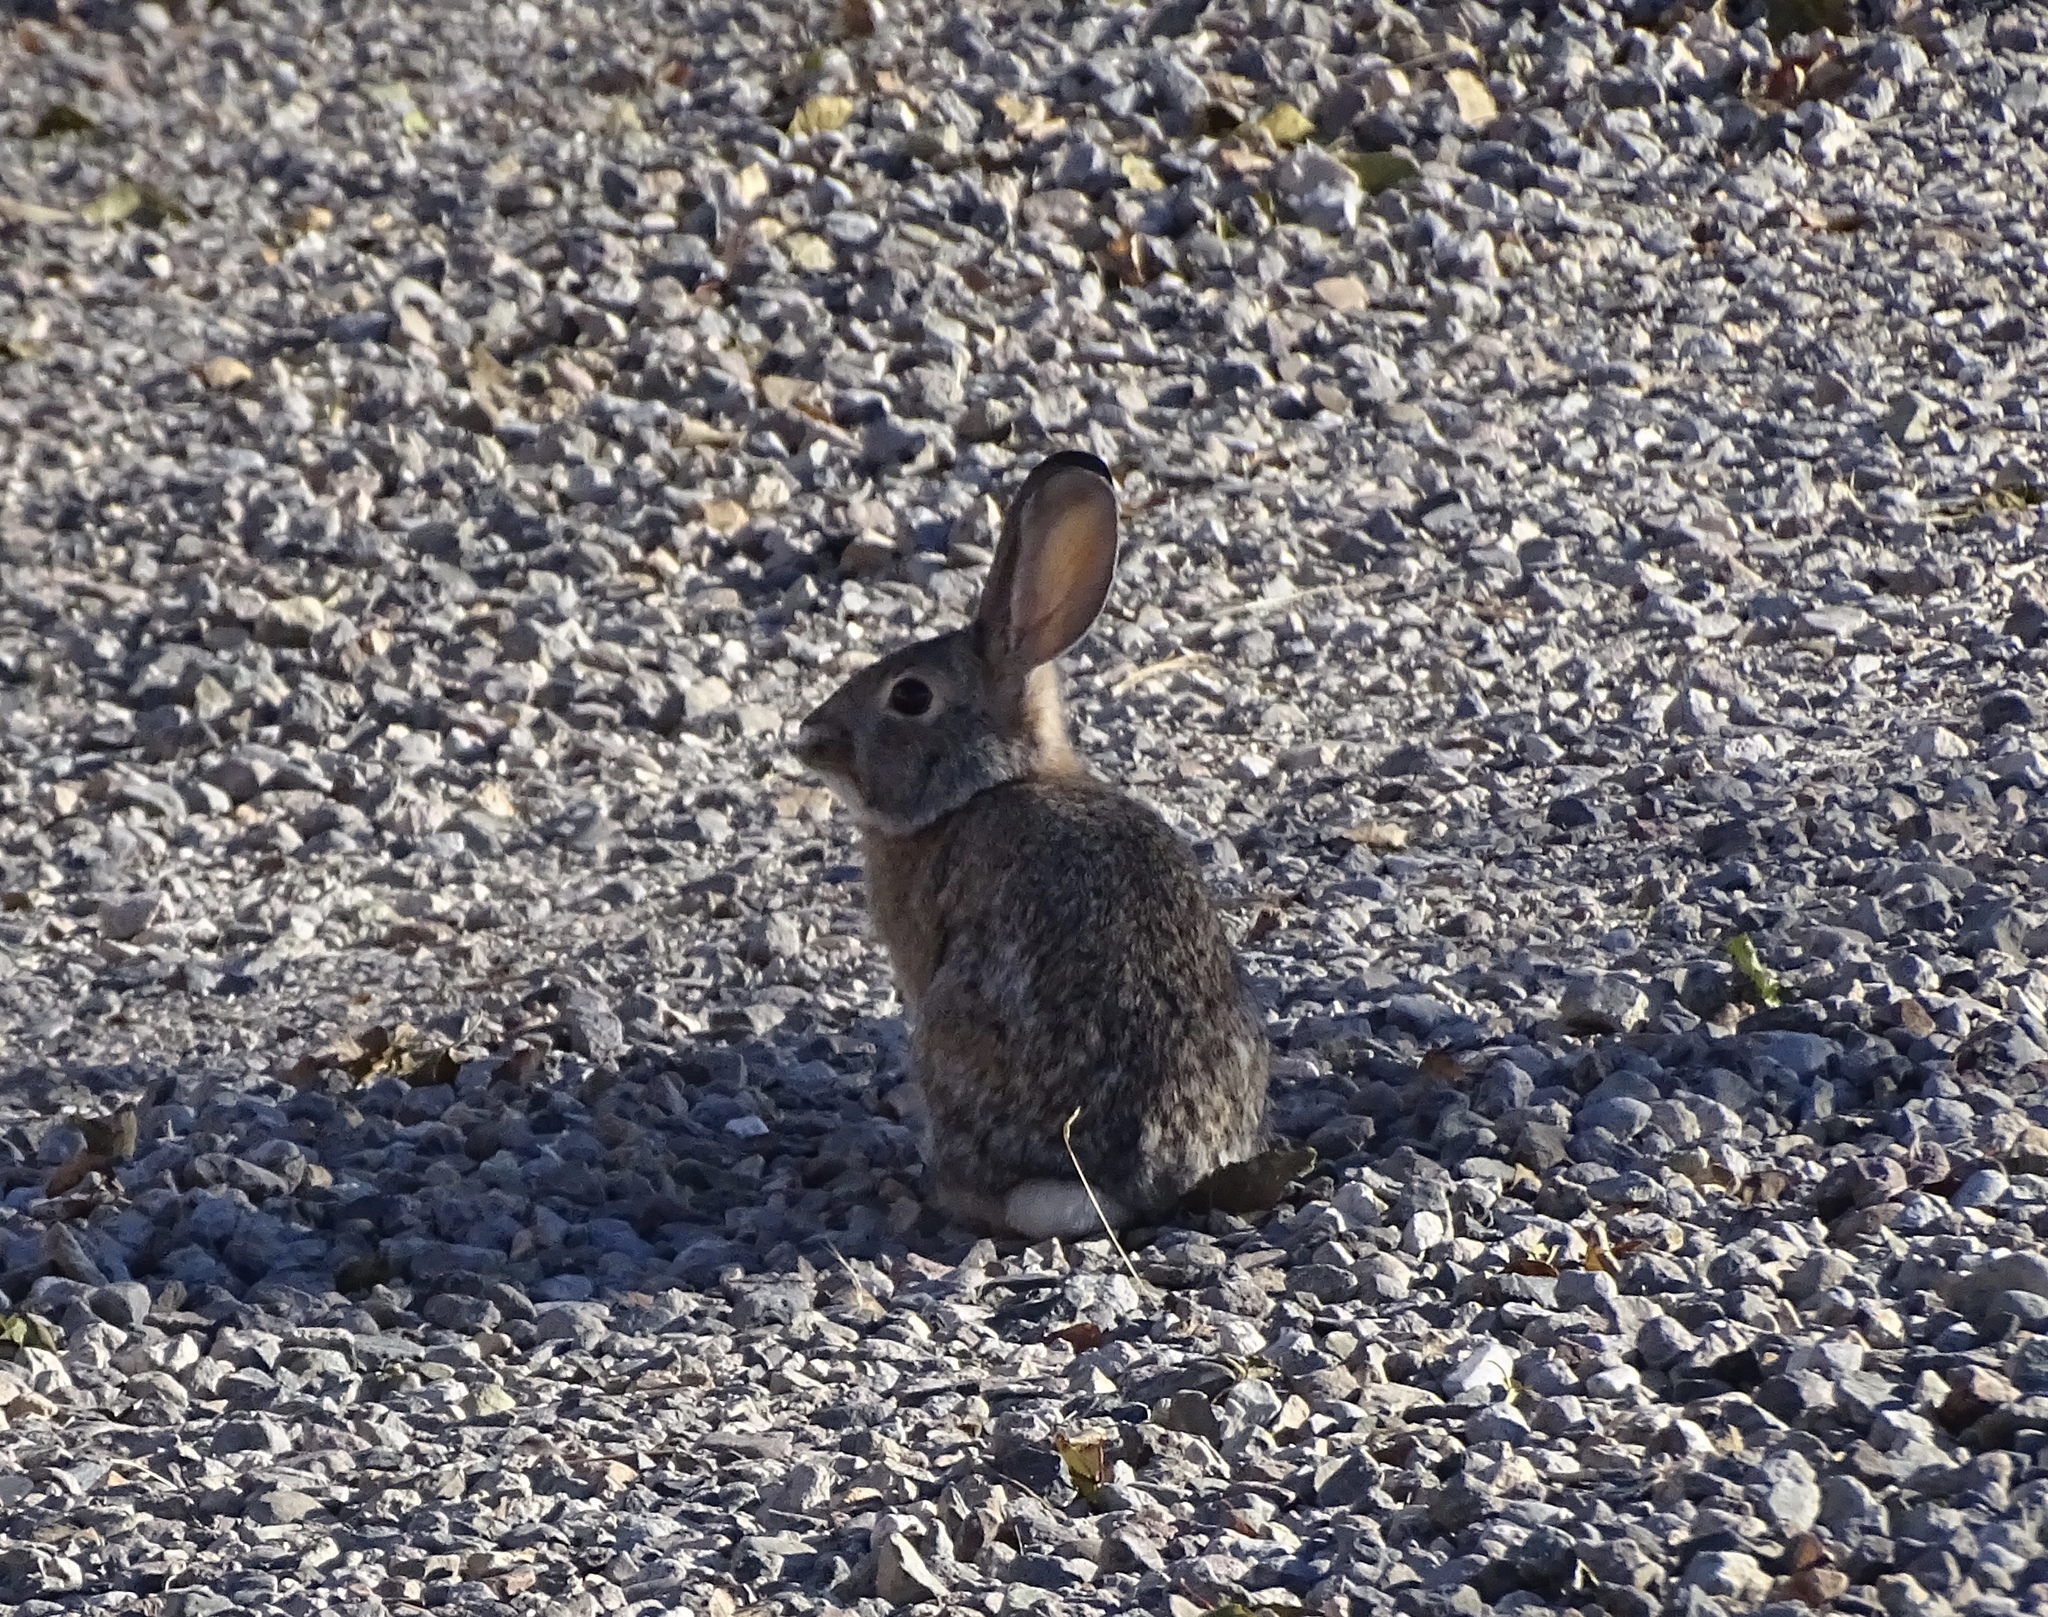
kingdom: Animalia
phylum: Chordata
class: Mammalia
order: Lagomorpha
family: Leporidae
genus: Sylvilagus
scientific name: Sylvilagus audubonii
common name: Desert cottontail
